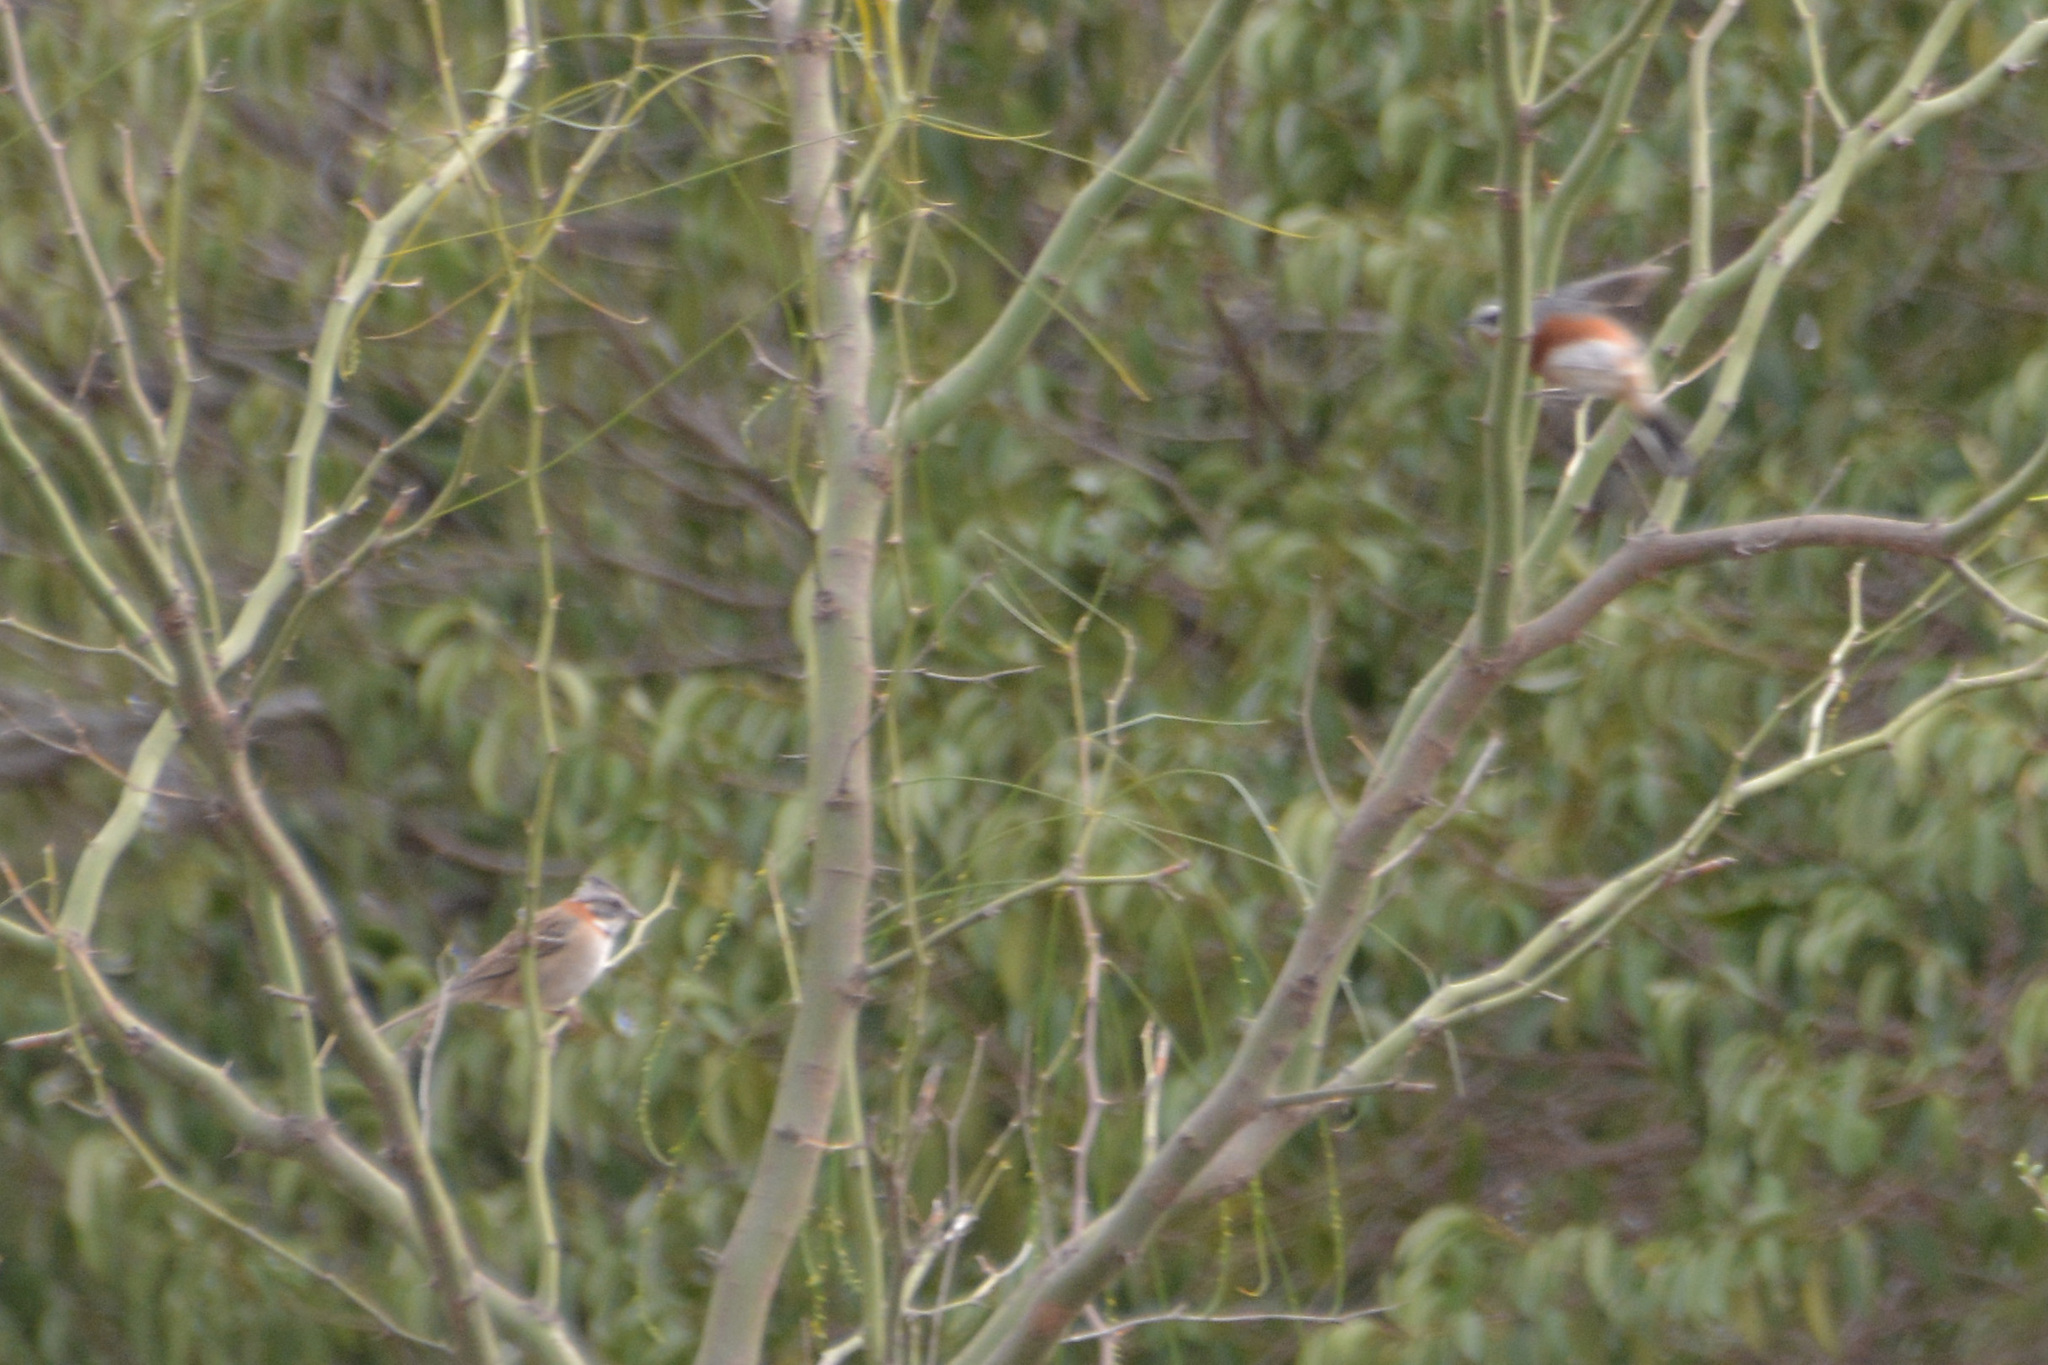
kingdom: Animalia
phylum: Chordata
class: Aves
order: Passeriformes
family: Passerellidae
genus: Zonotrichia
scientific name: Zonotrichia capensis
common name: Rufous-collared sparrow
